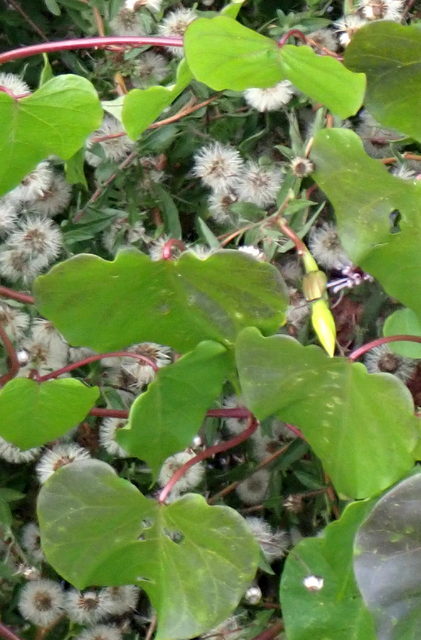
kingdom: Plantae
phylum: Tracheophyta
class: Magnoliopsida
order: Solanales
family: Convolvulaceae
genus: Ipomoea
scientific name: Ipomoea alba
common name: Moonflower
